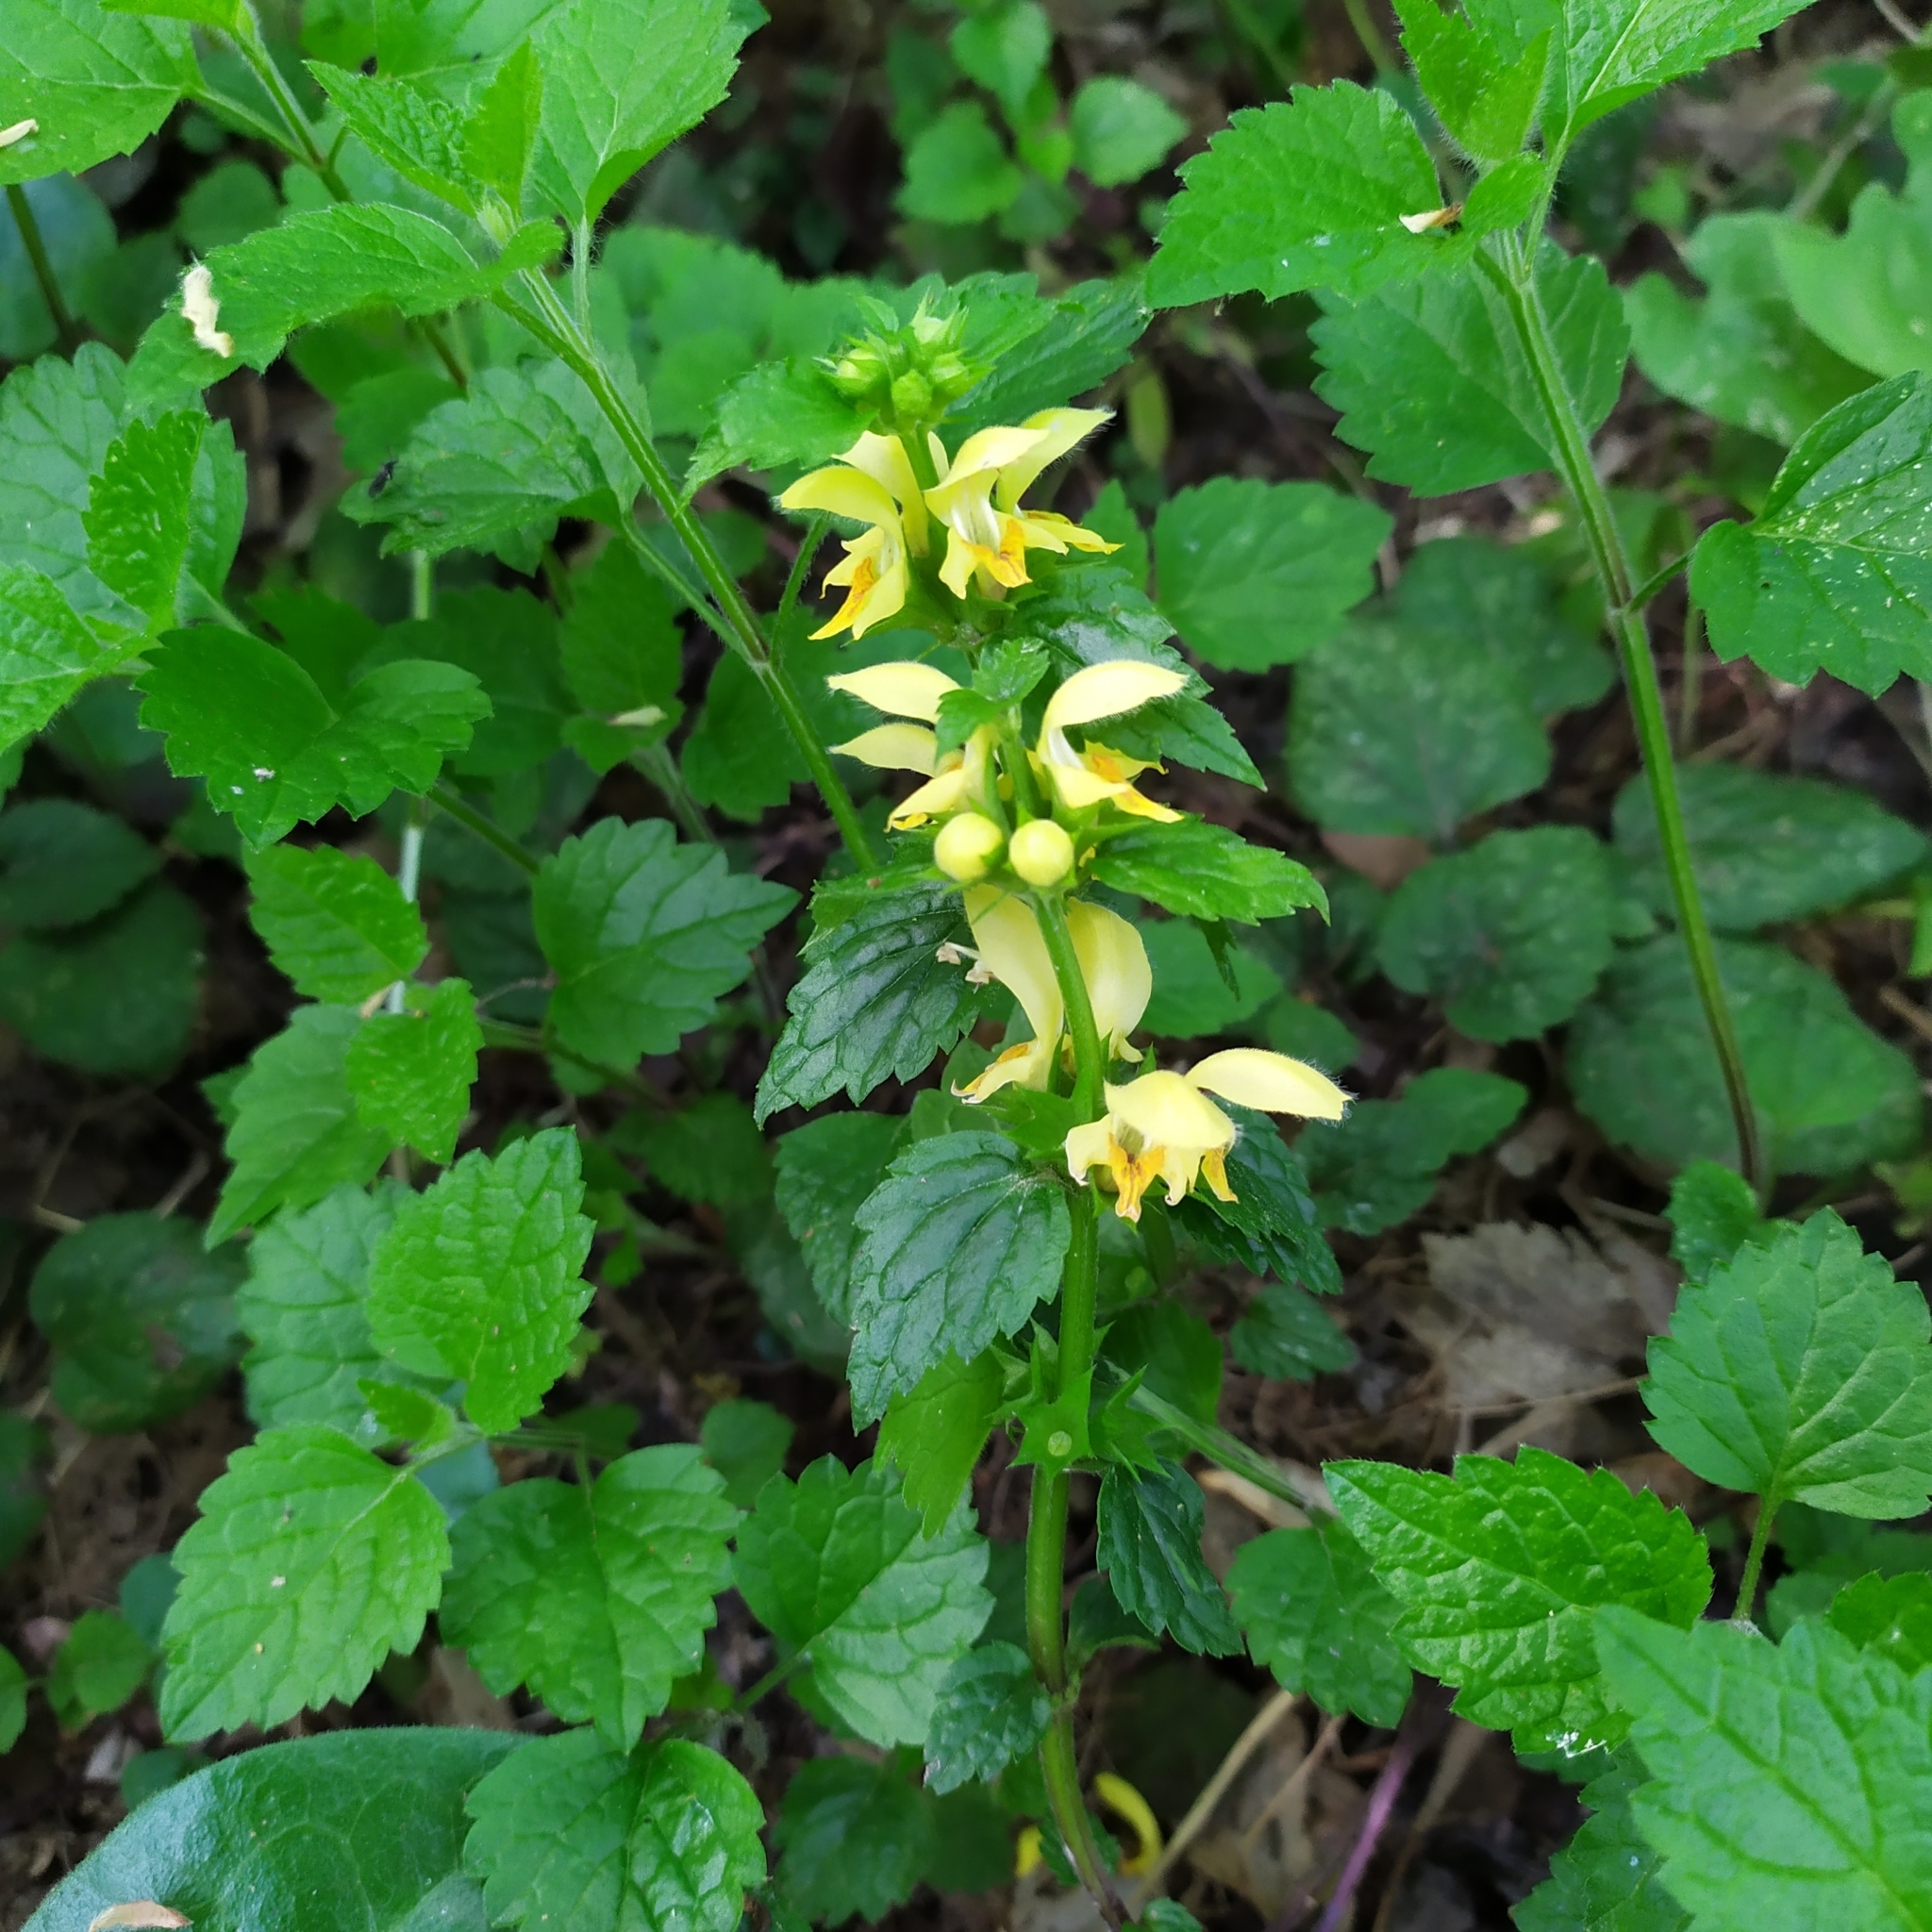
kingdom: Plantae
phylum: Tracheophyta
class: Magnoliopsida
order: Lamiales
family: Lamiaceae
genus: Lamium
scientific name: Lamium galeobdolon
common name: Yellow archangel
